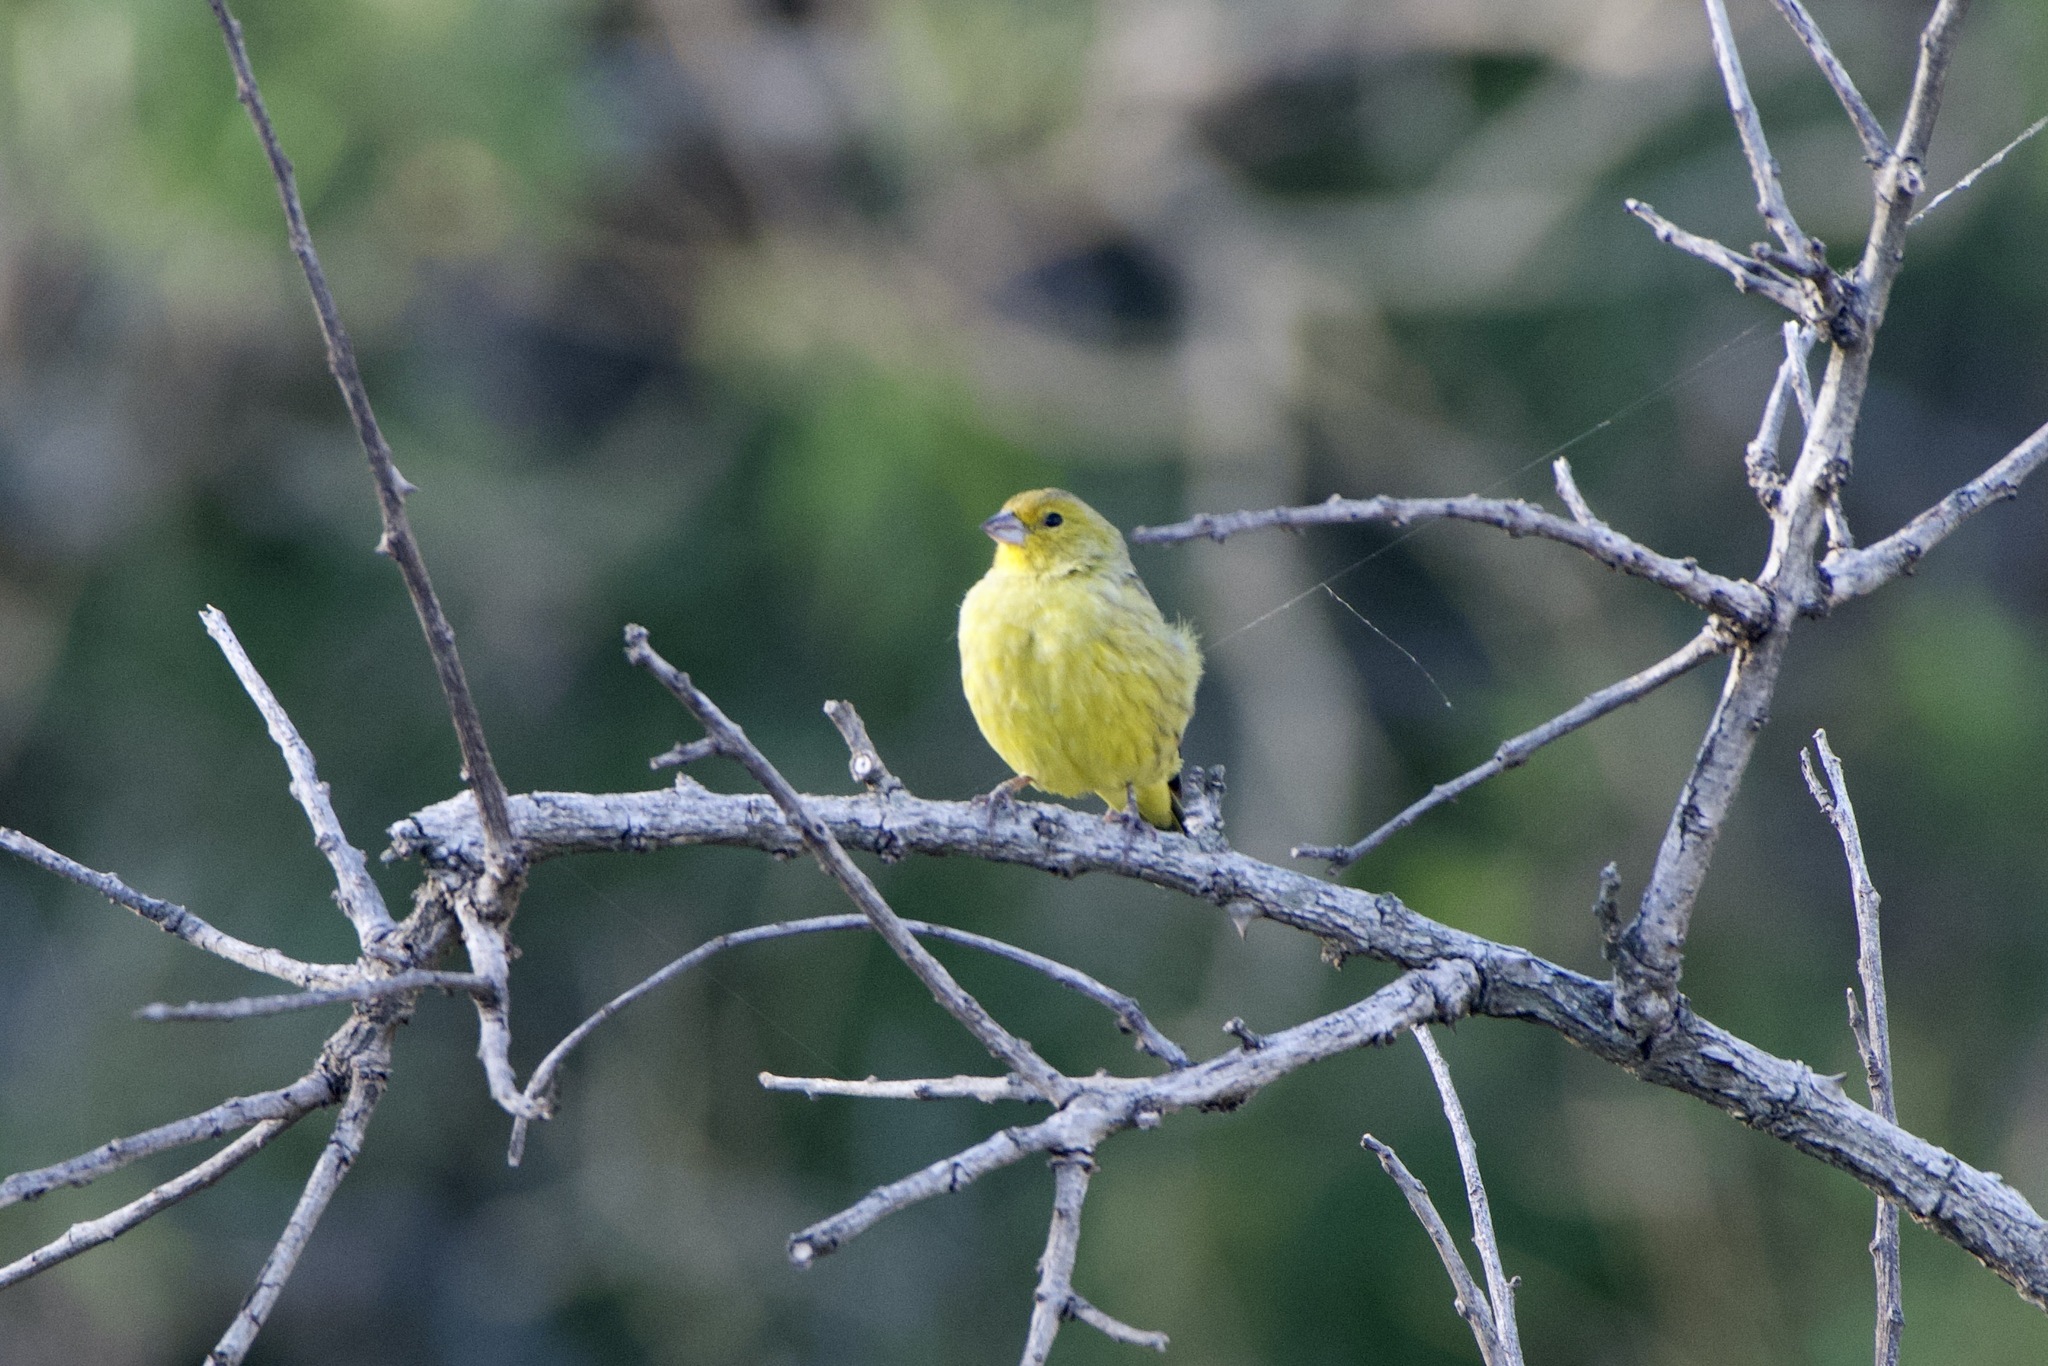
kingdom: Animalia
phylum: Chordata
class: Aves
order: Passeriformes
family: Thraupidae
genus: Sicalis
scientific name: Sicalis flaveola
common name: Saffron finch
